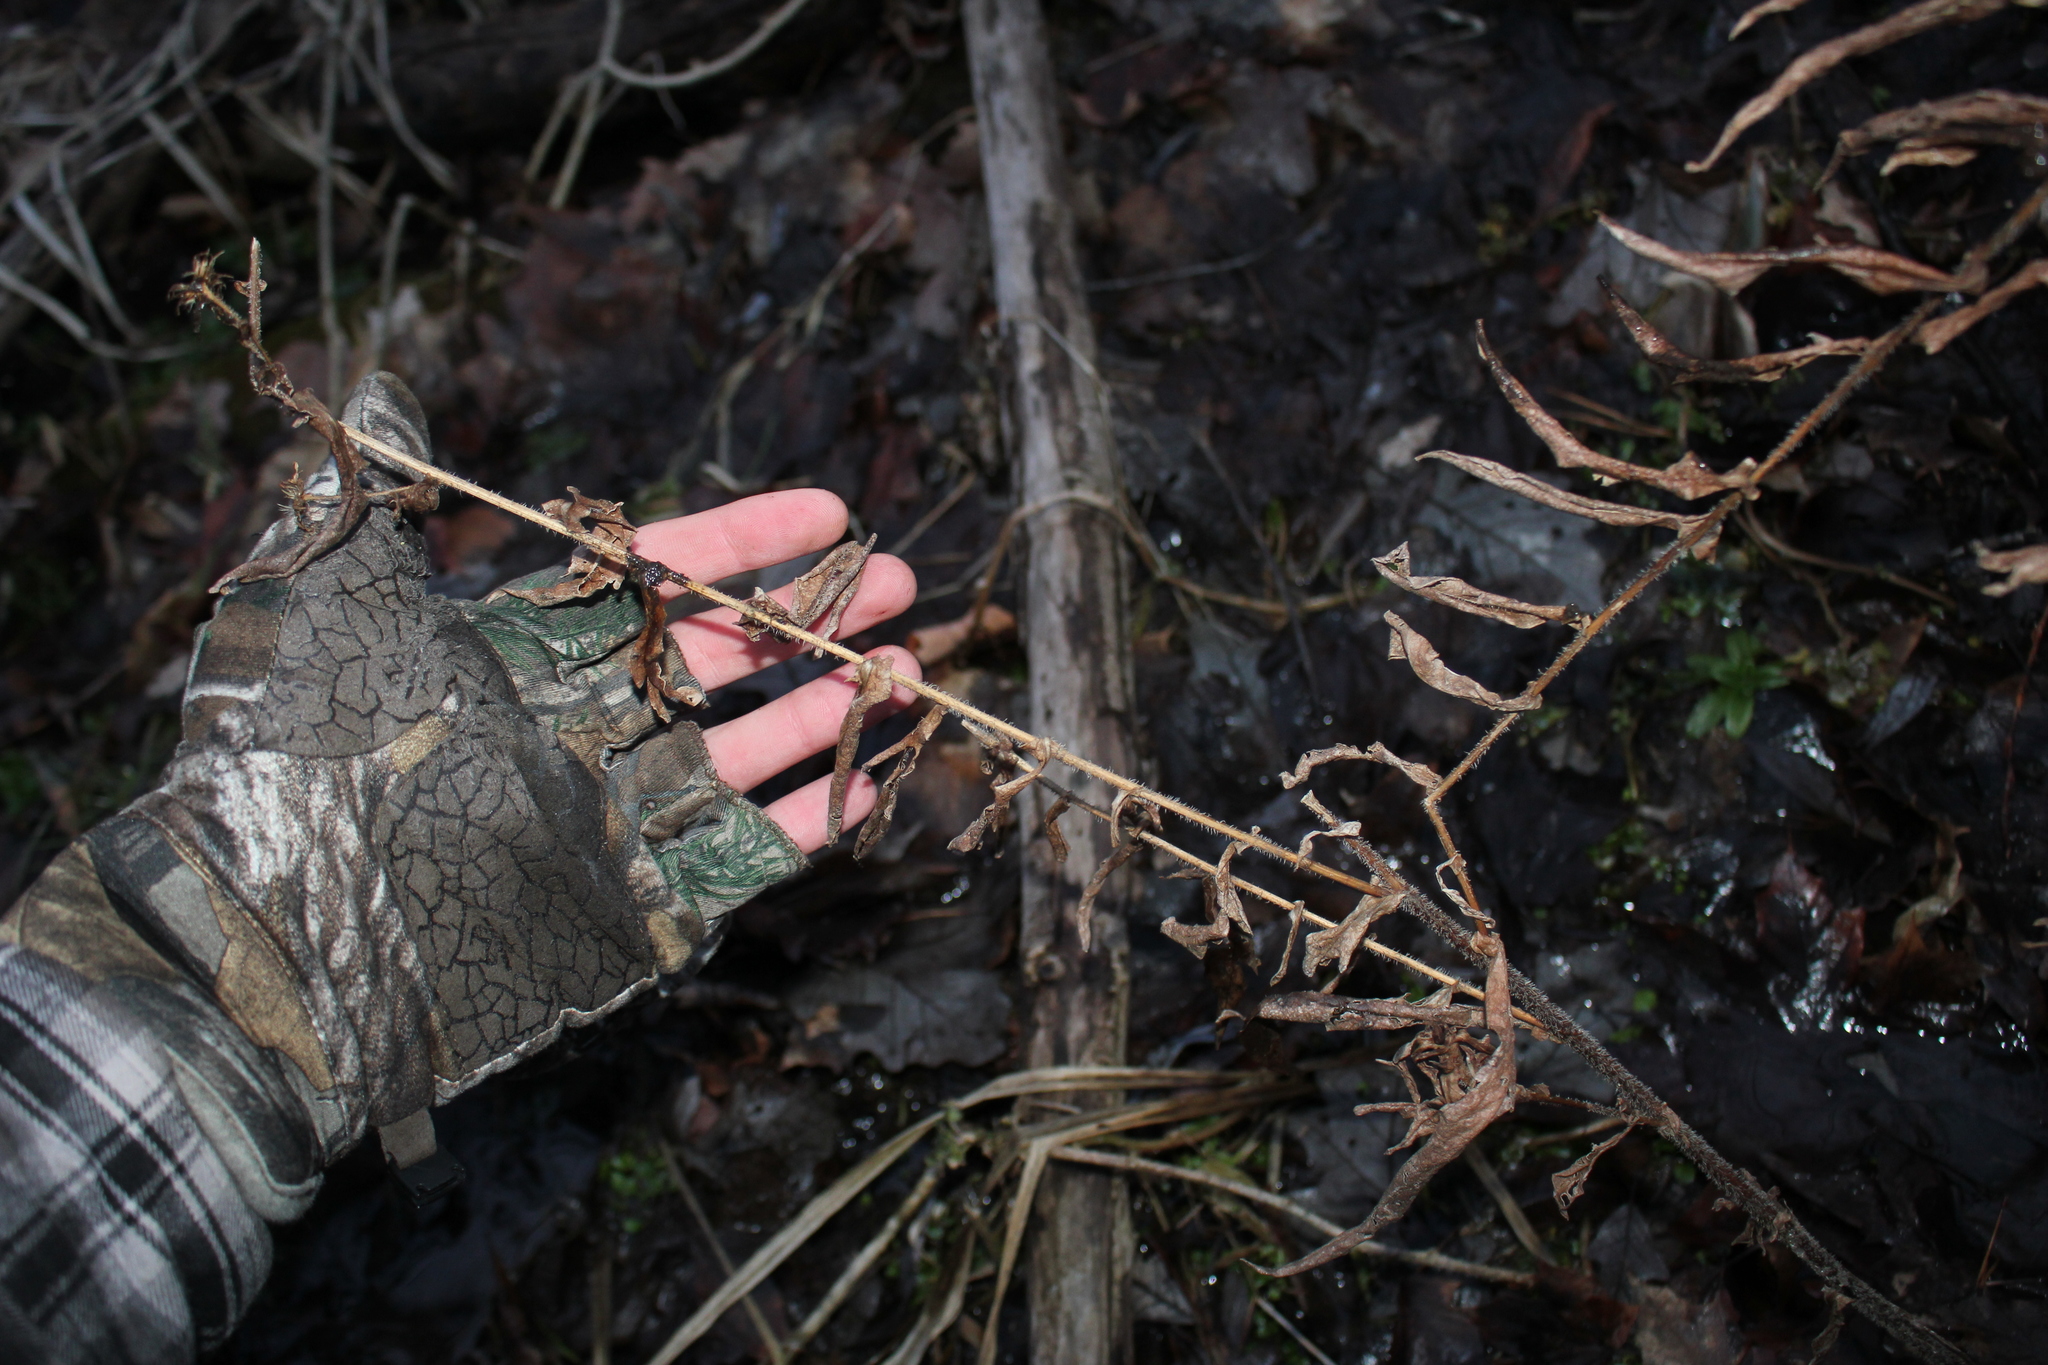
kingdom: Plantae
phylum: Tracheophyta
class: Magnoliopsida
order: Asterales
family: Asteraceae
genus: Symphyotrichum
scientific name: Symphyotrichum puniceum
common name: Bog aster
